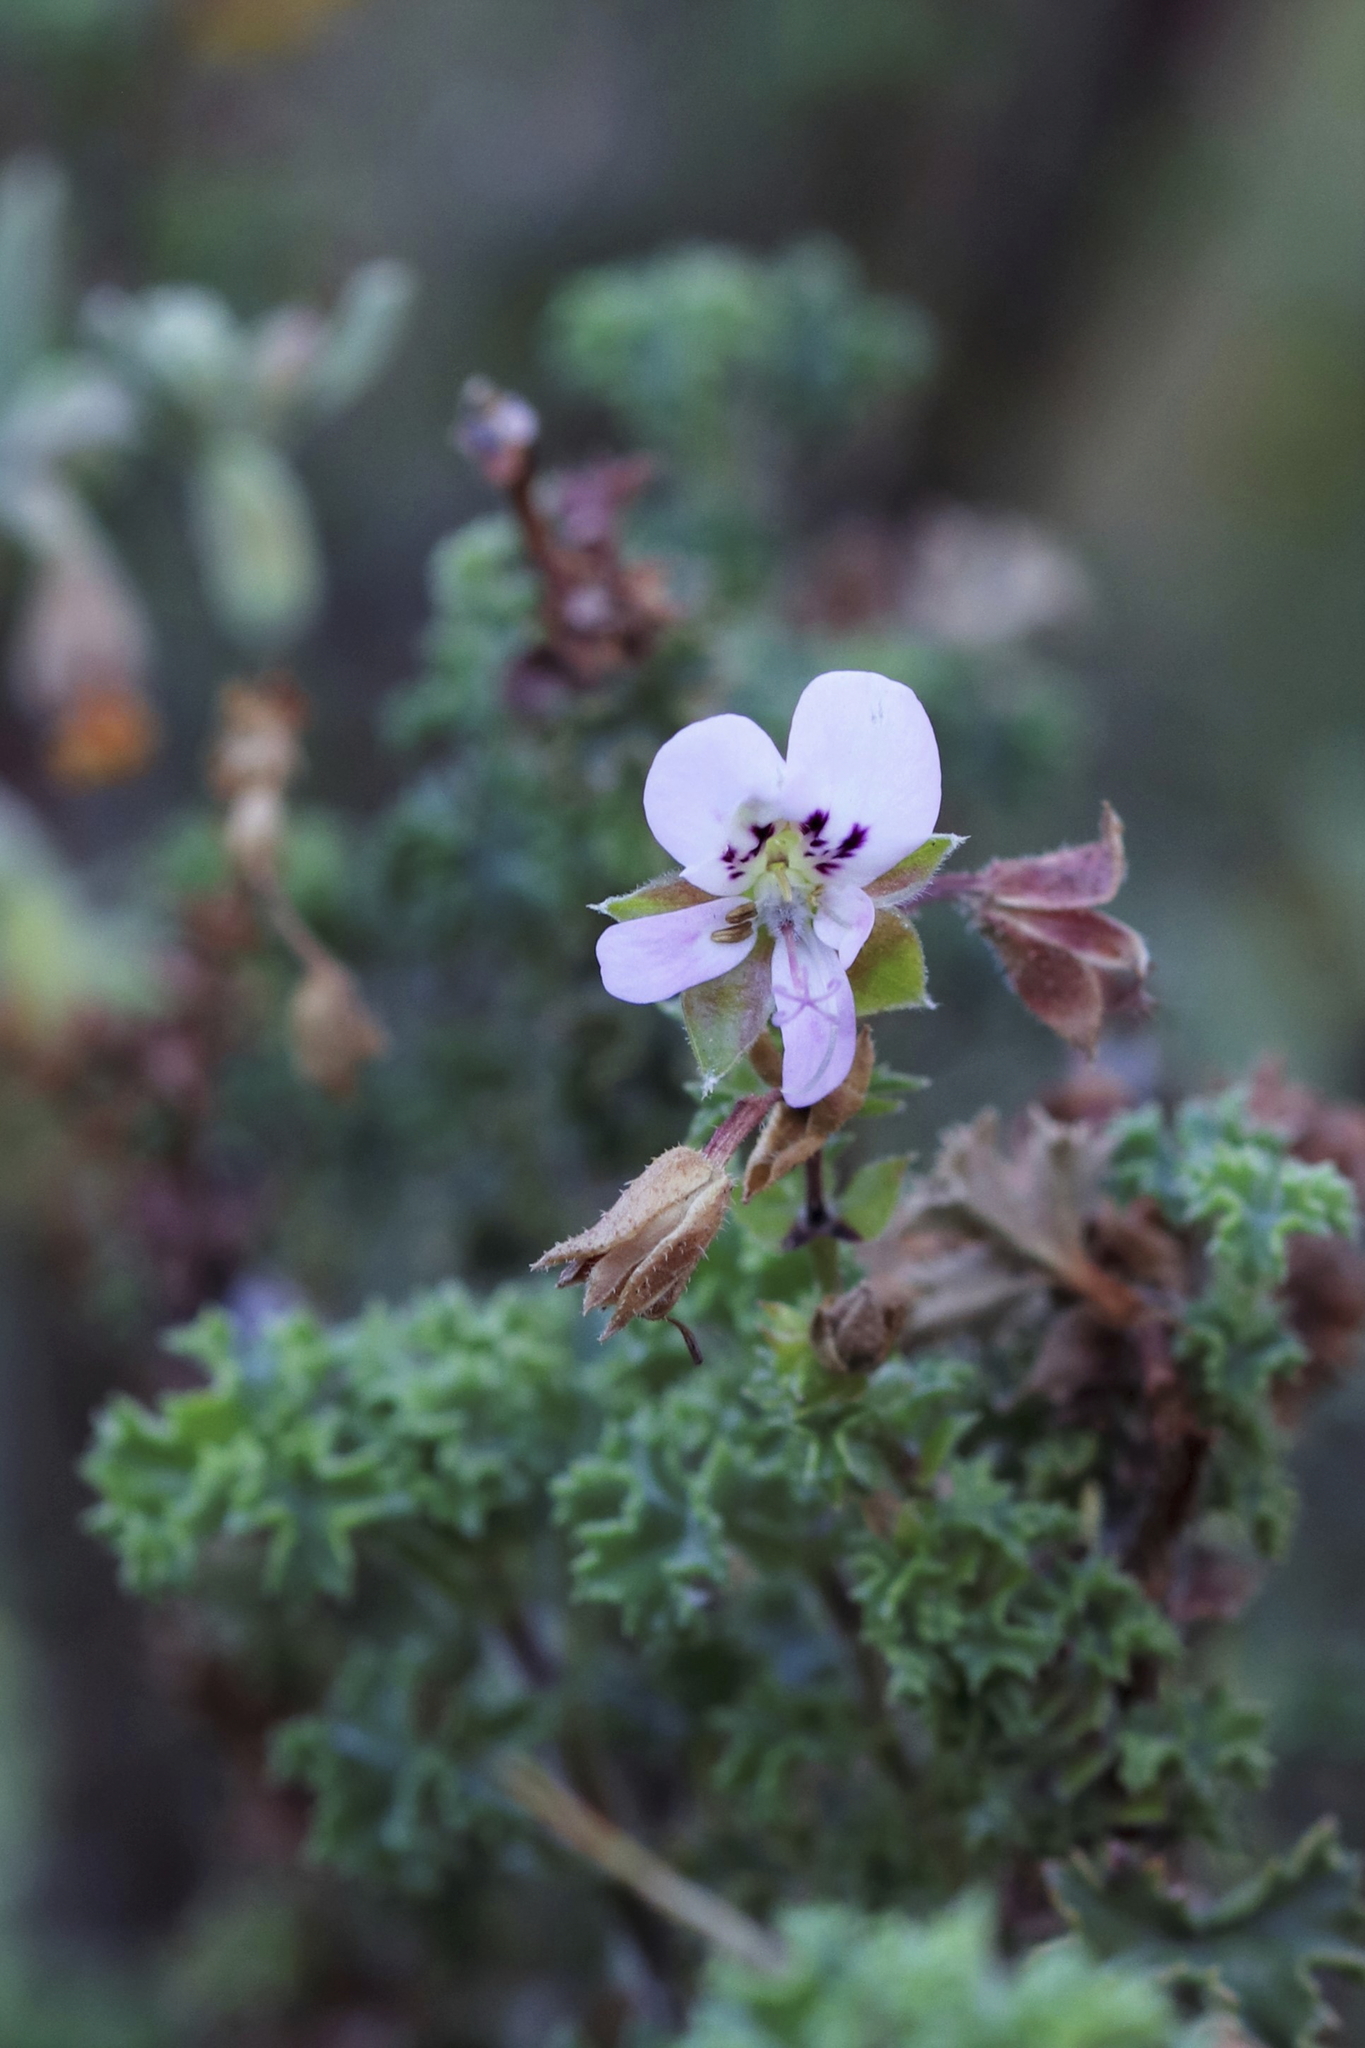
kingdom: Plantae
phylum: Tracheophyta
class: Magnoliopsida
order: Geraniales
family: Geraniaceae
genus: Pelargonium
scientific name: Pelargonium englerianum
